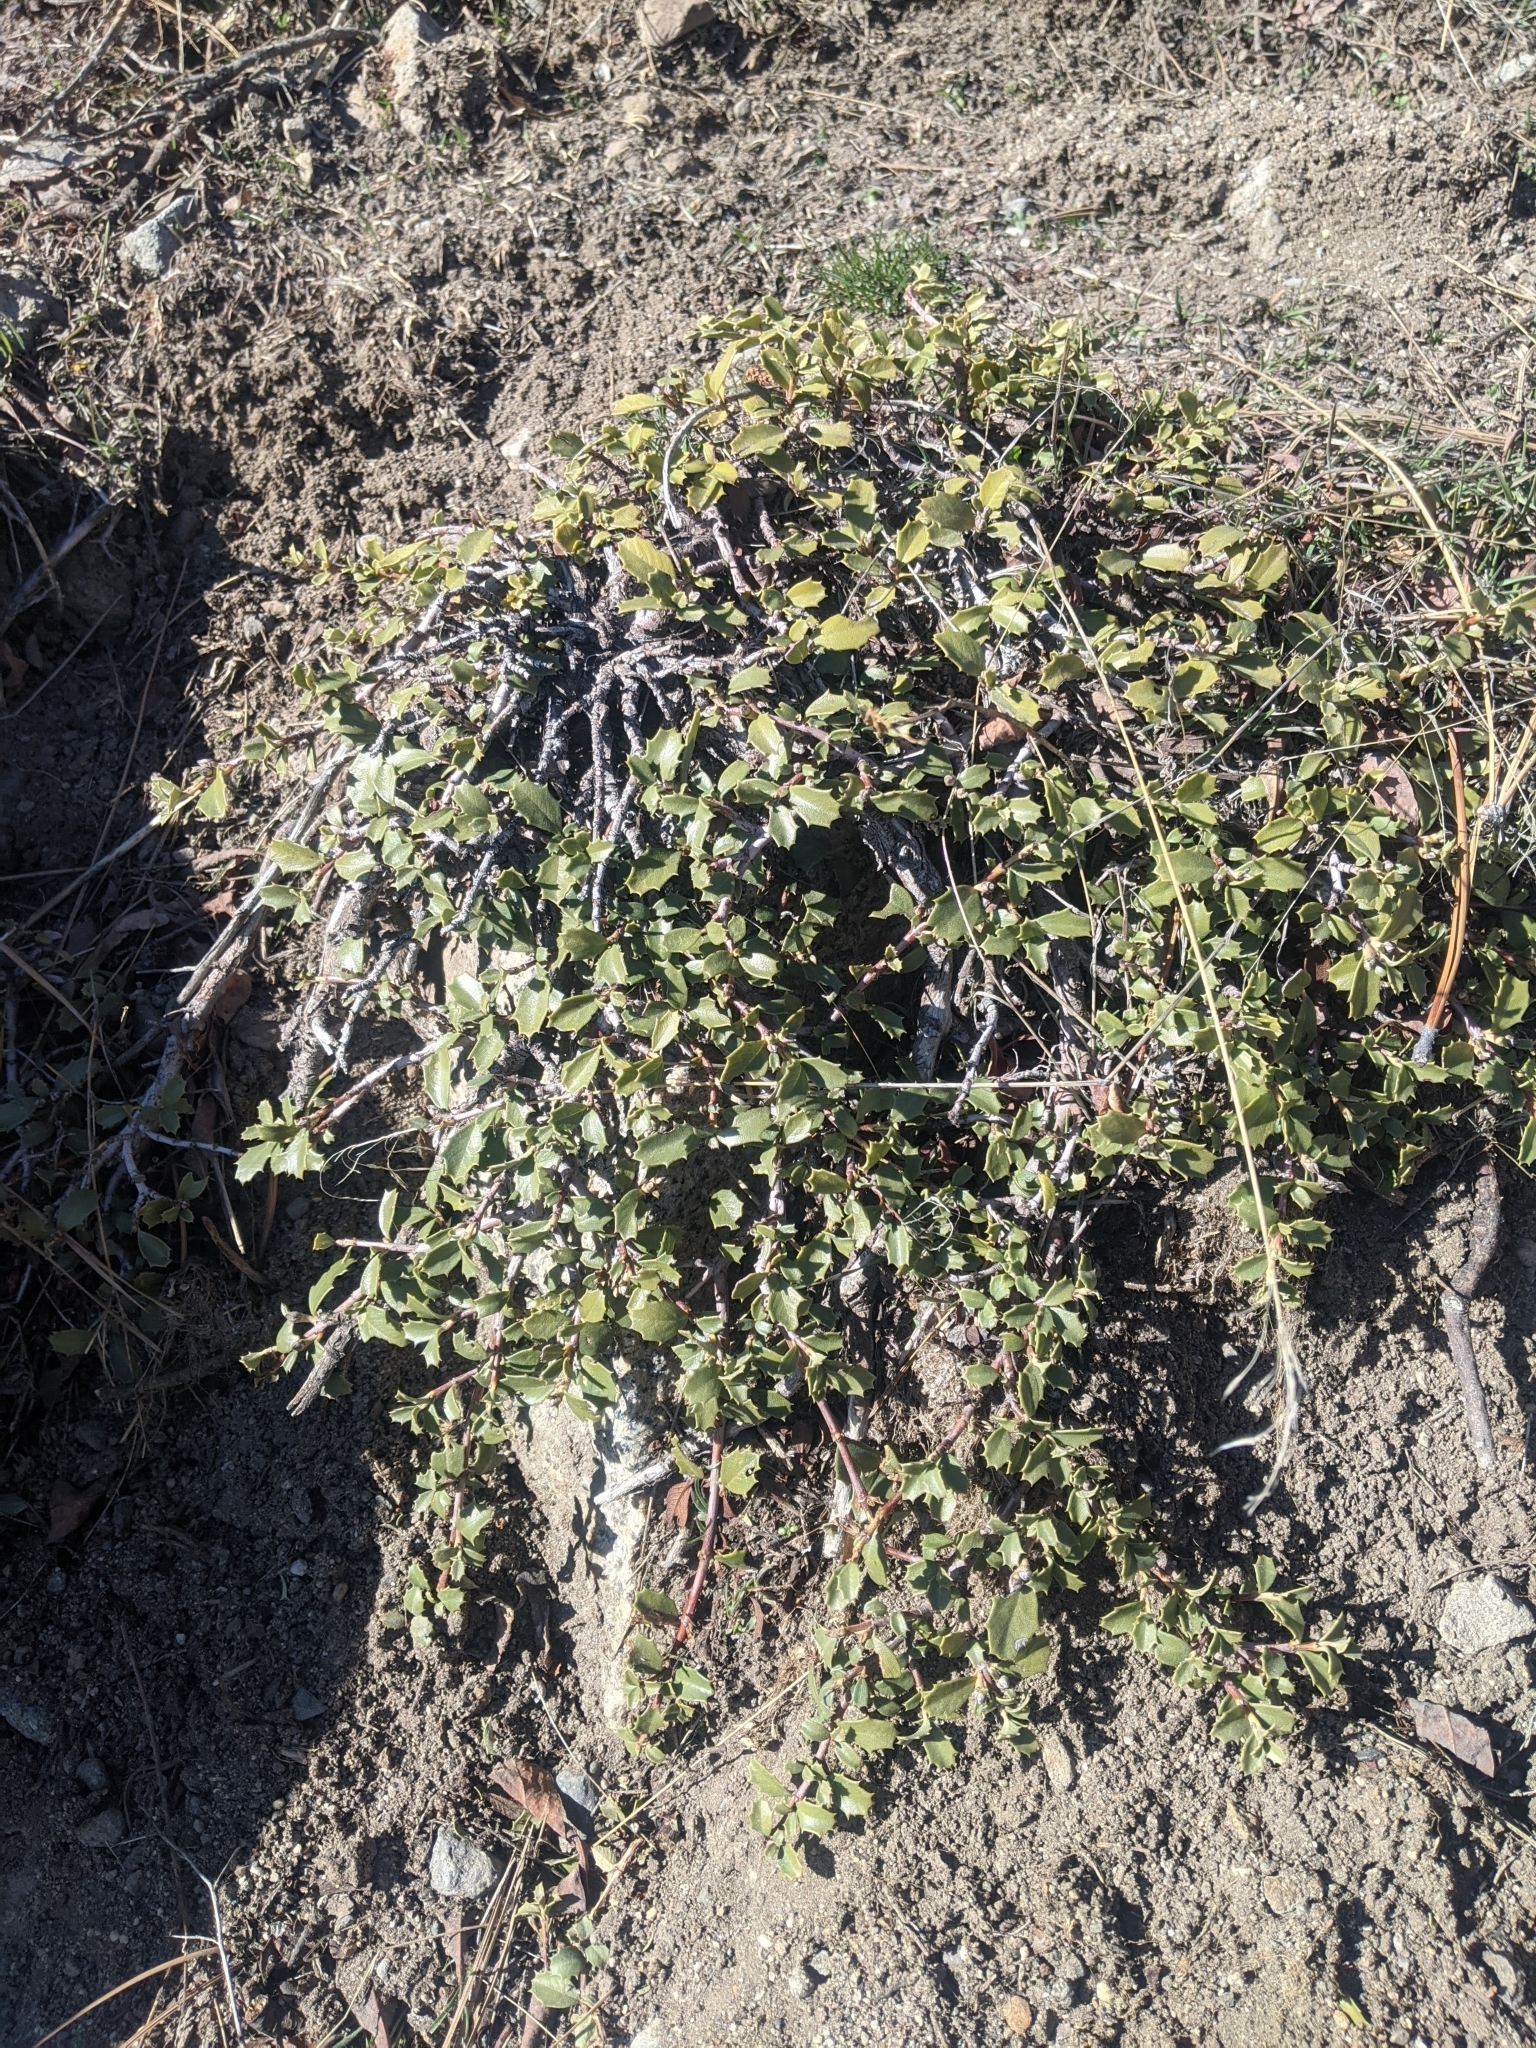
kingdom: Plantae
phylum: Tracheophyta
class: Magnoliopsida
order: Rosales
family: Rhamnaceae
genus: Ceanothus
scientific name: Ceanothus prostratus
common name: Mahala-mat
